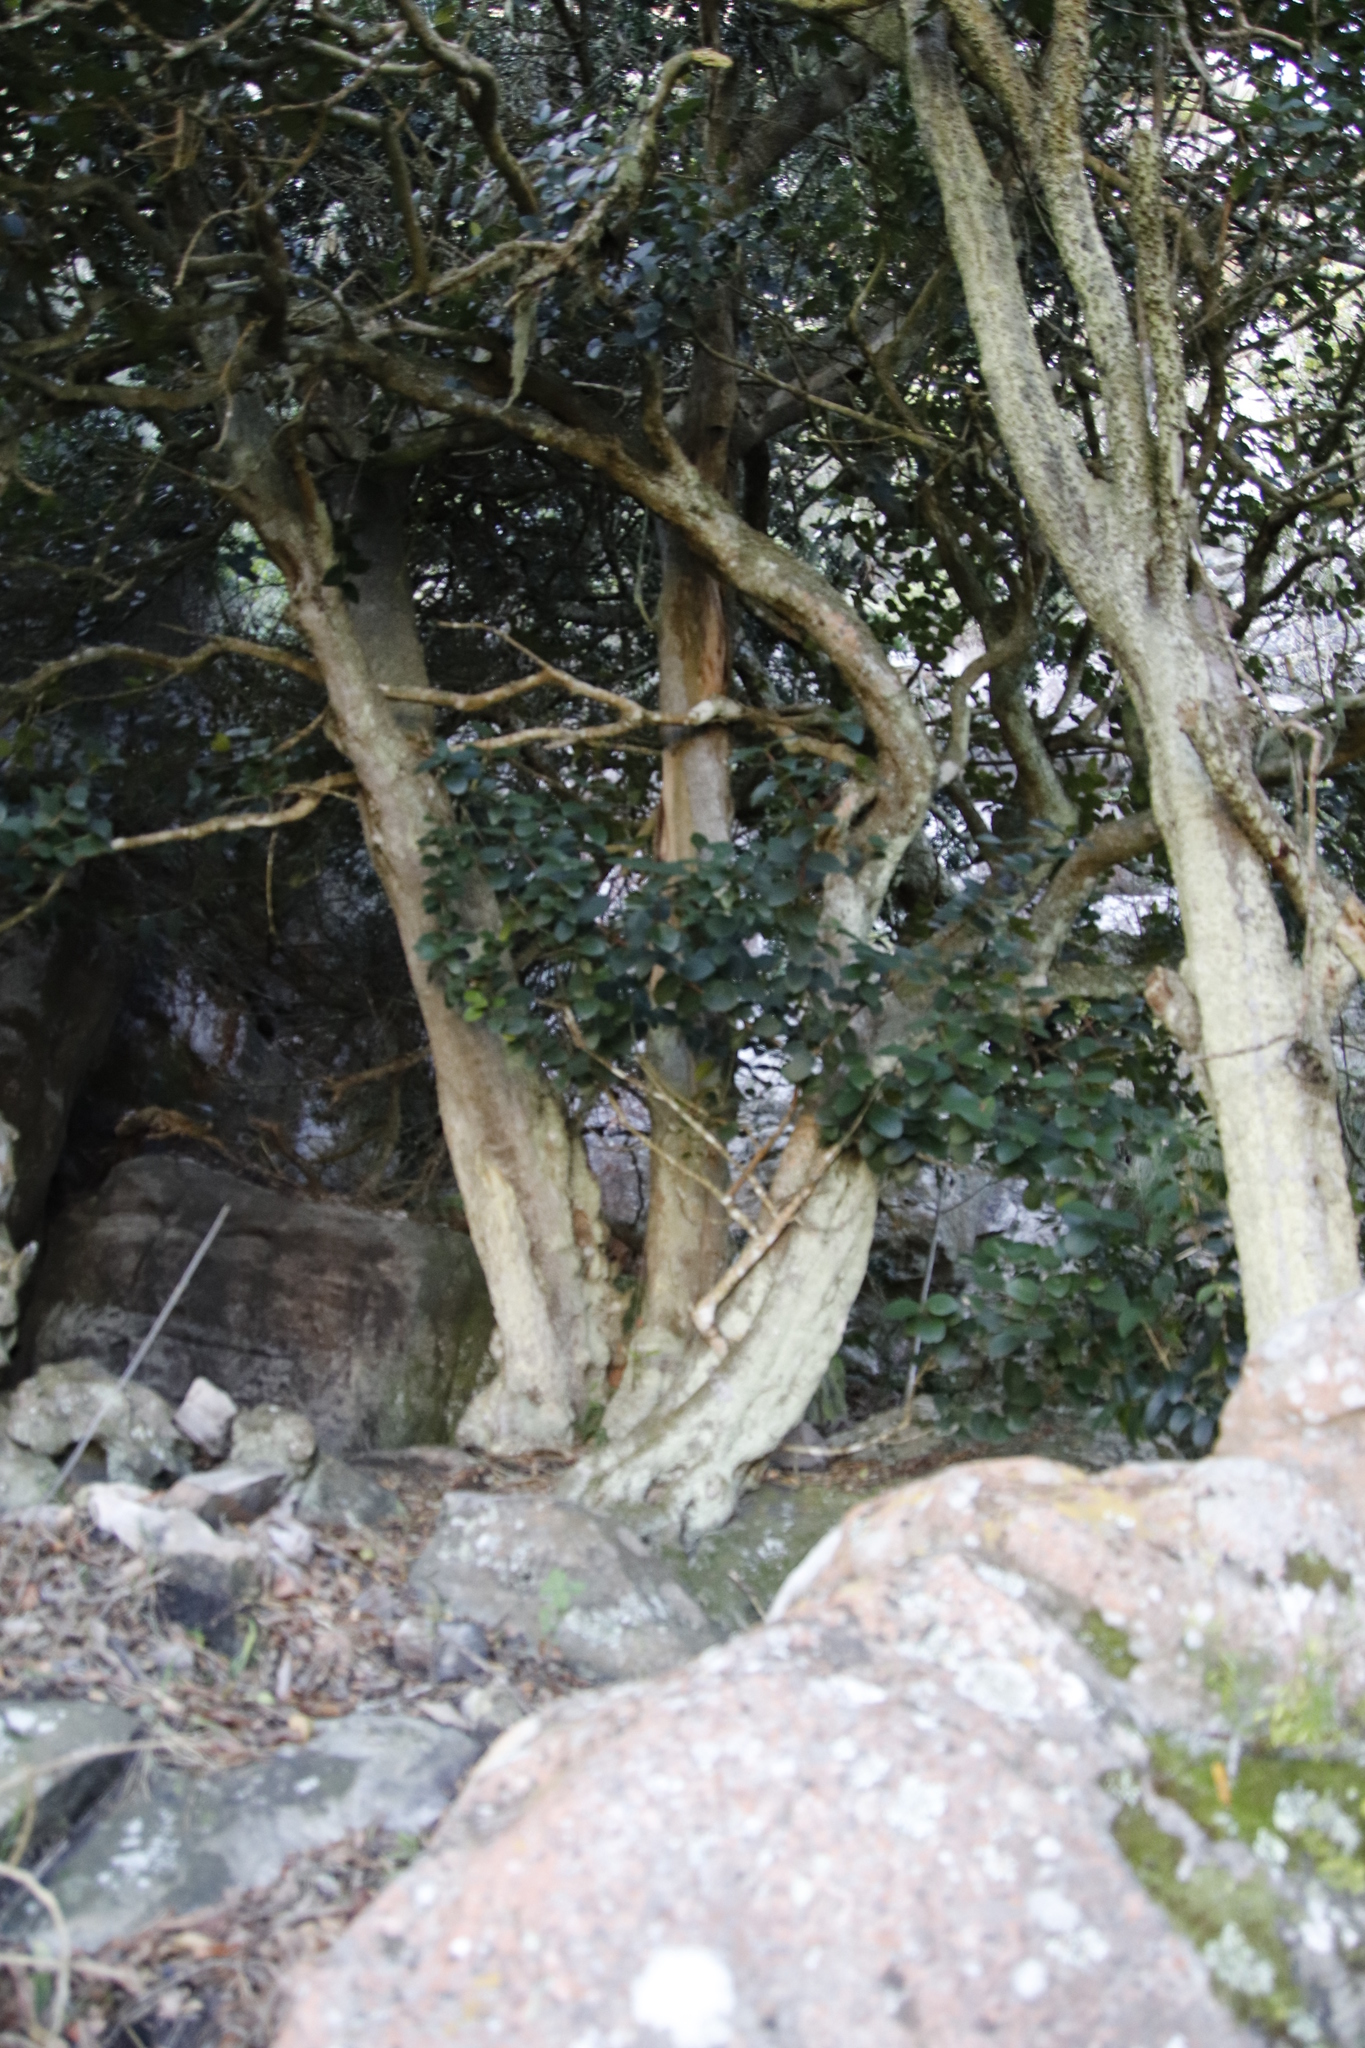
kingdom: Plantae
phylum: Tracheophyta
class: Magnoliopsida
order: Celastrales
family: Celastraceae
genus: Maurocenia
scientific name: Maurocenia frangula
